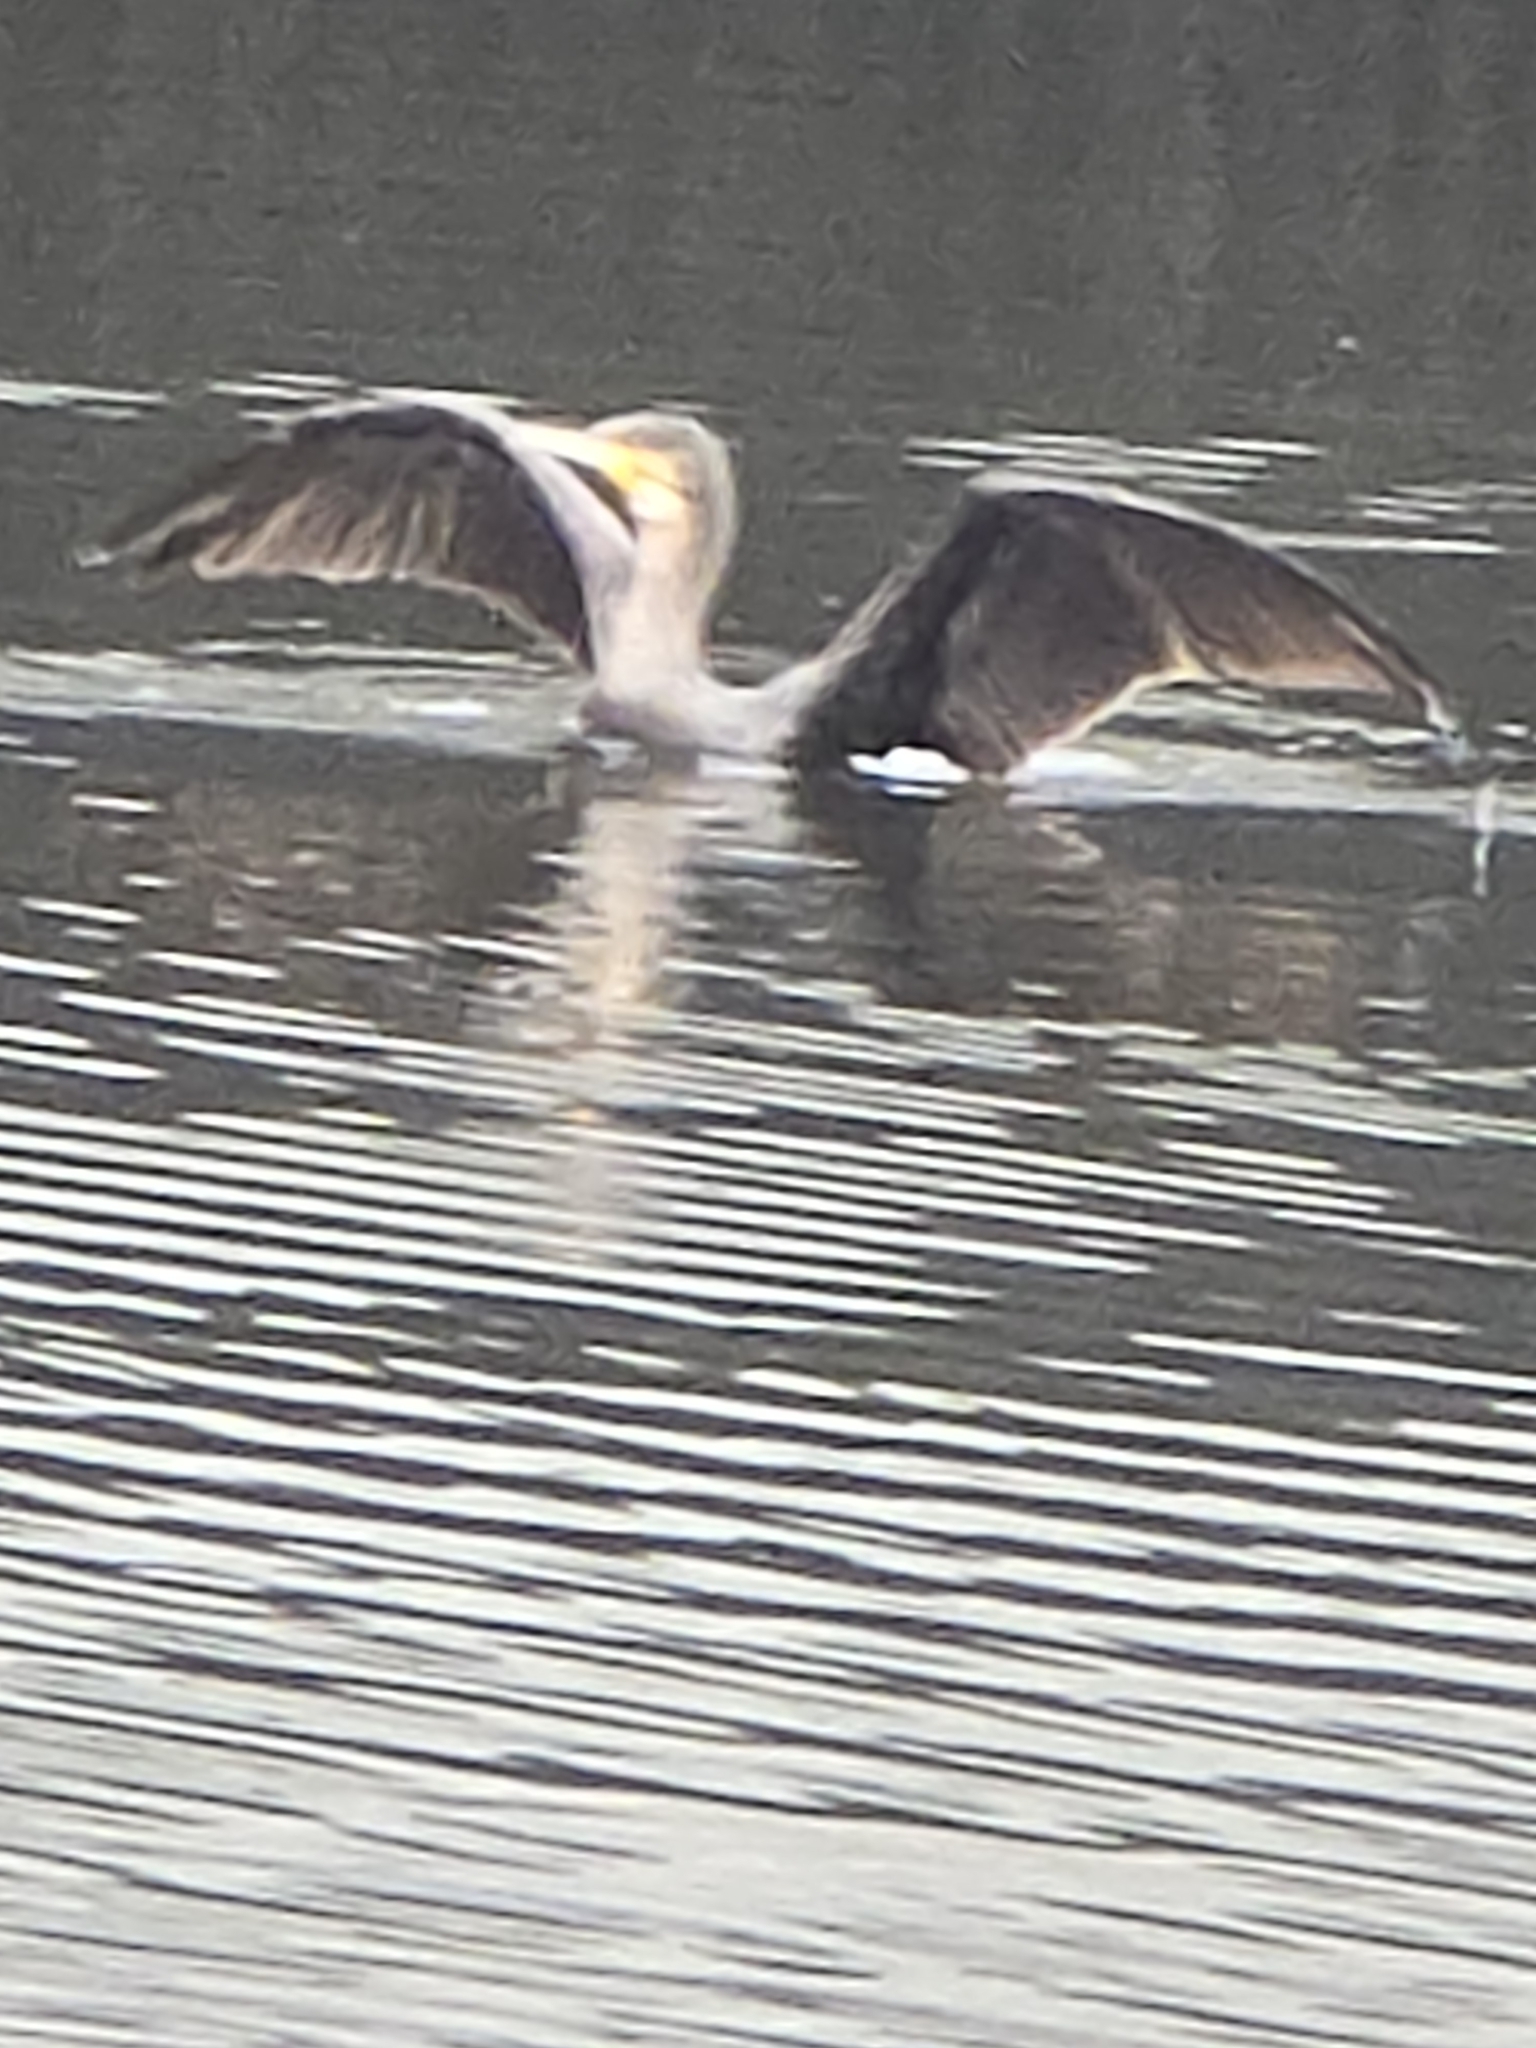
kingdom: Animalia
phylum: Chordata
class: Aves
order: Suliformes
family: Phalacrocoracidae
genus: Phalacrocorax
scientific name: Phalacrocorax carbo
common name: Great cormorant
